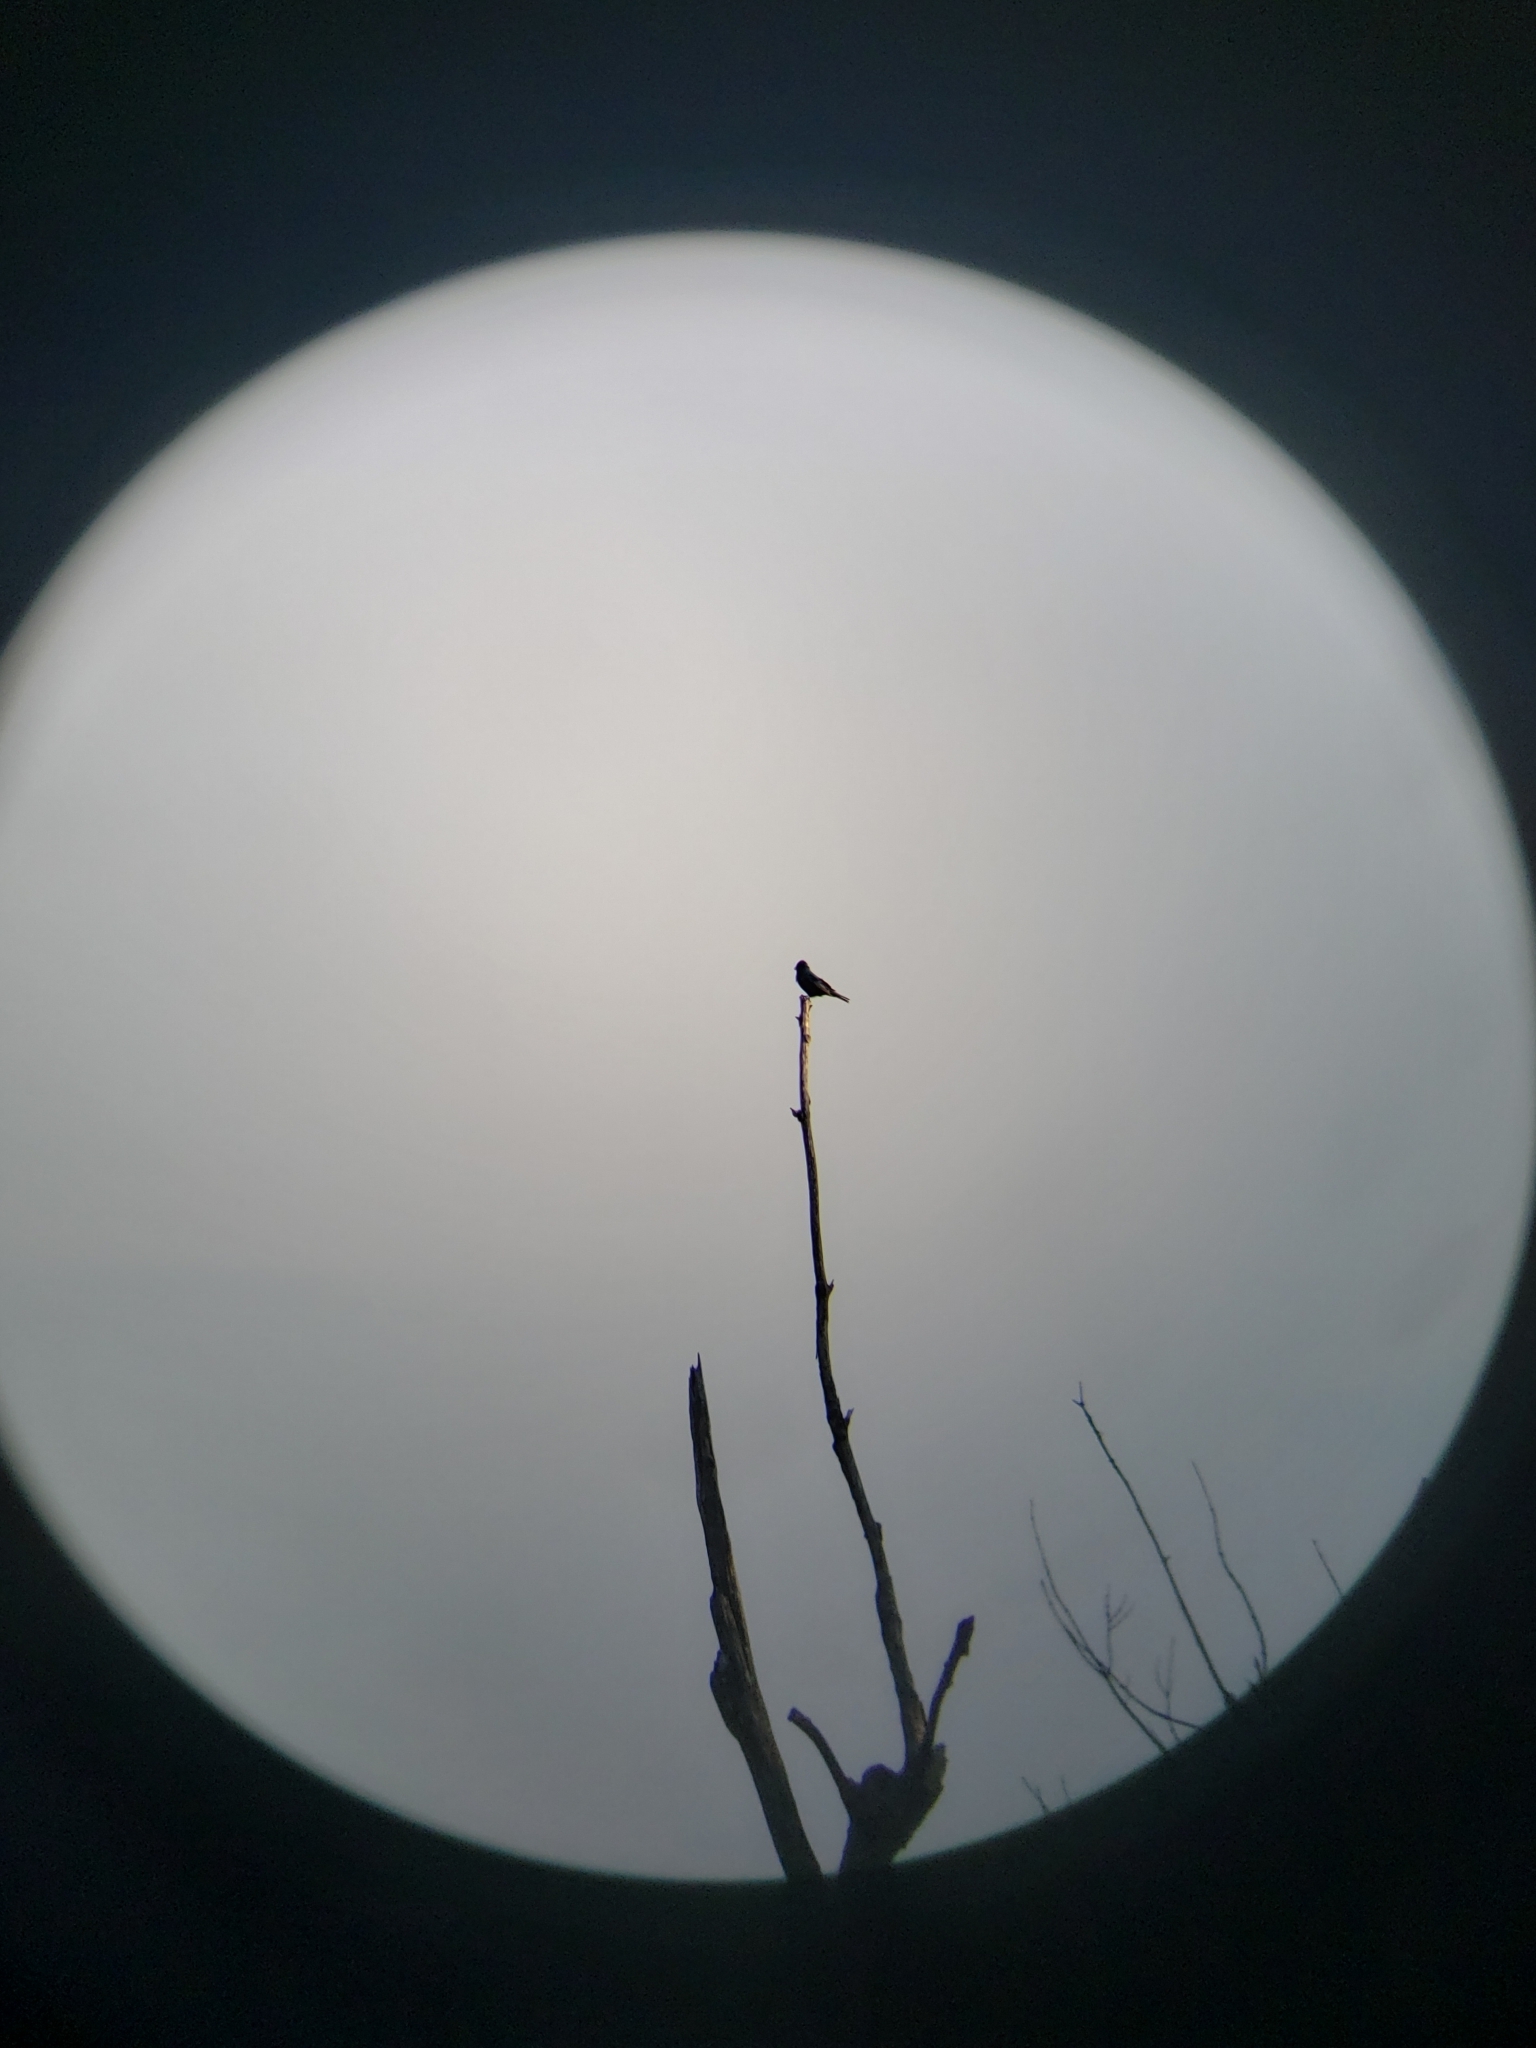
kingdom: Animalia
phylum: Chordata
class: Aves
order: Passeriformes
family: Cardinalidae
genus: Passerina
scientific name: Passerina cyanea
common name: Indigo bunting
